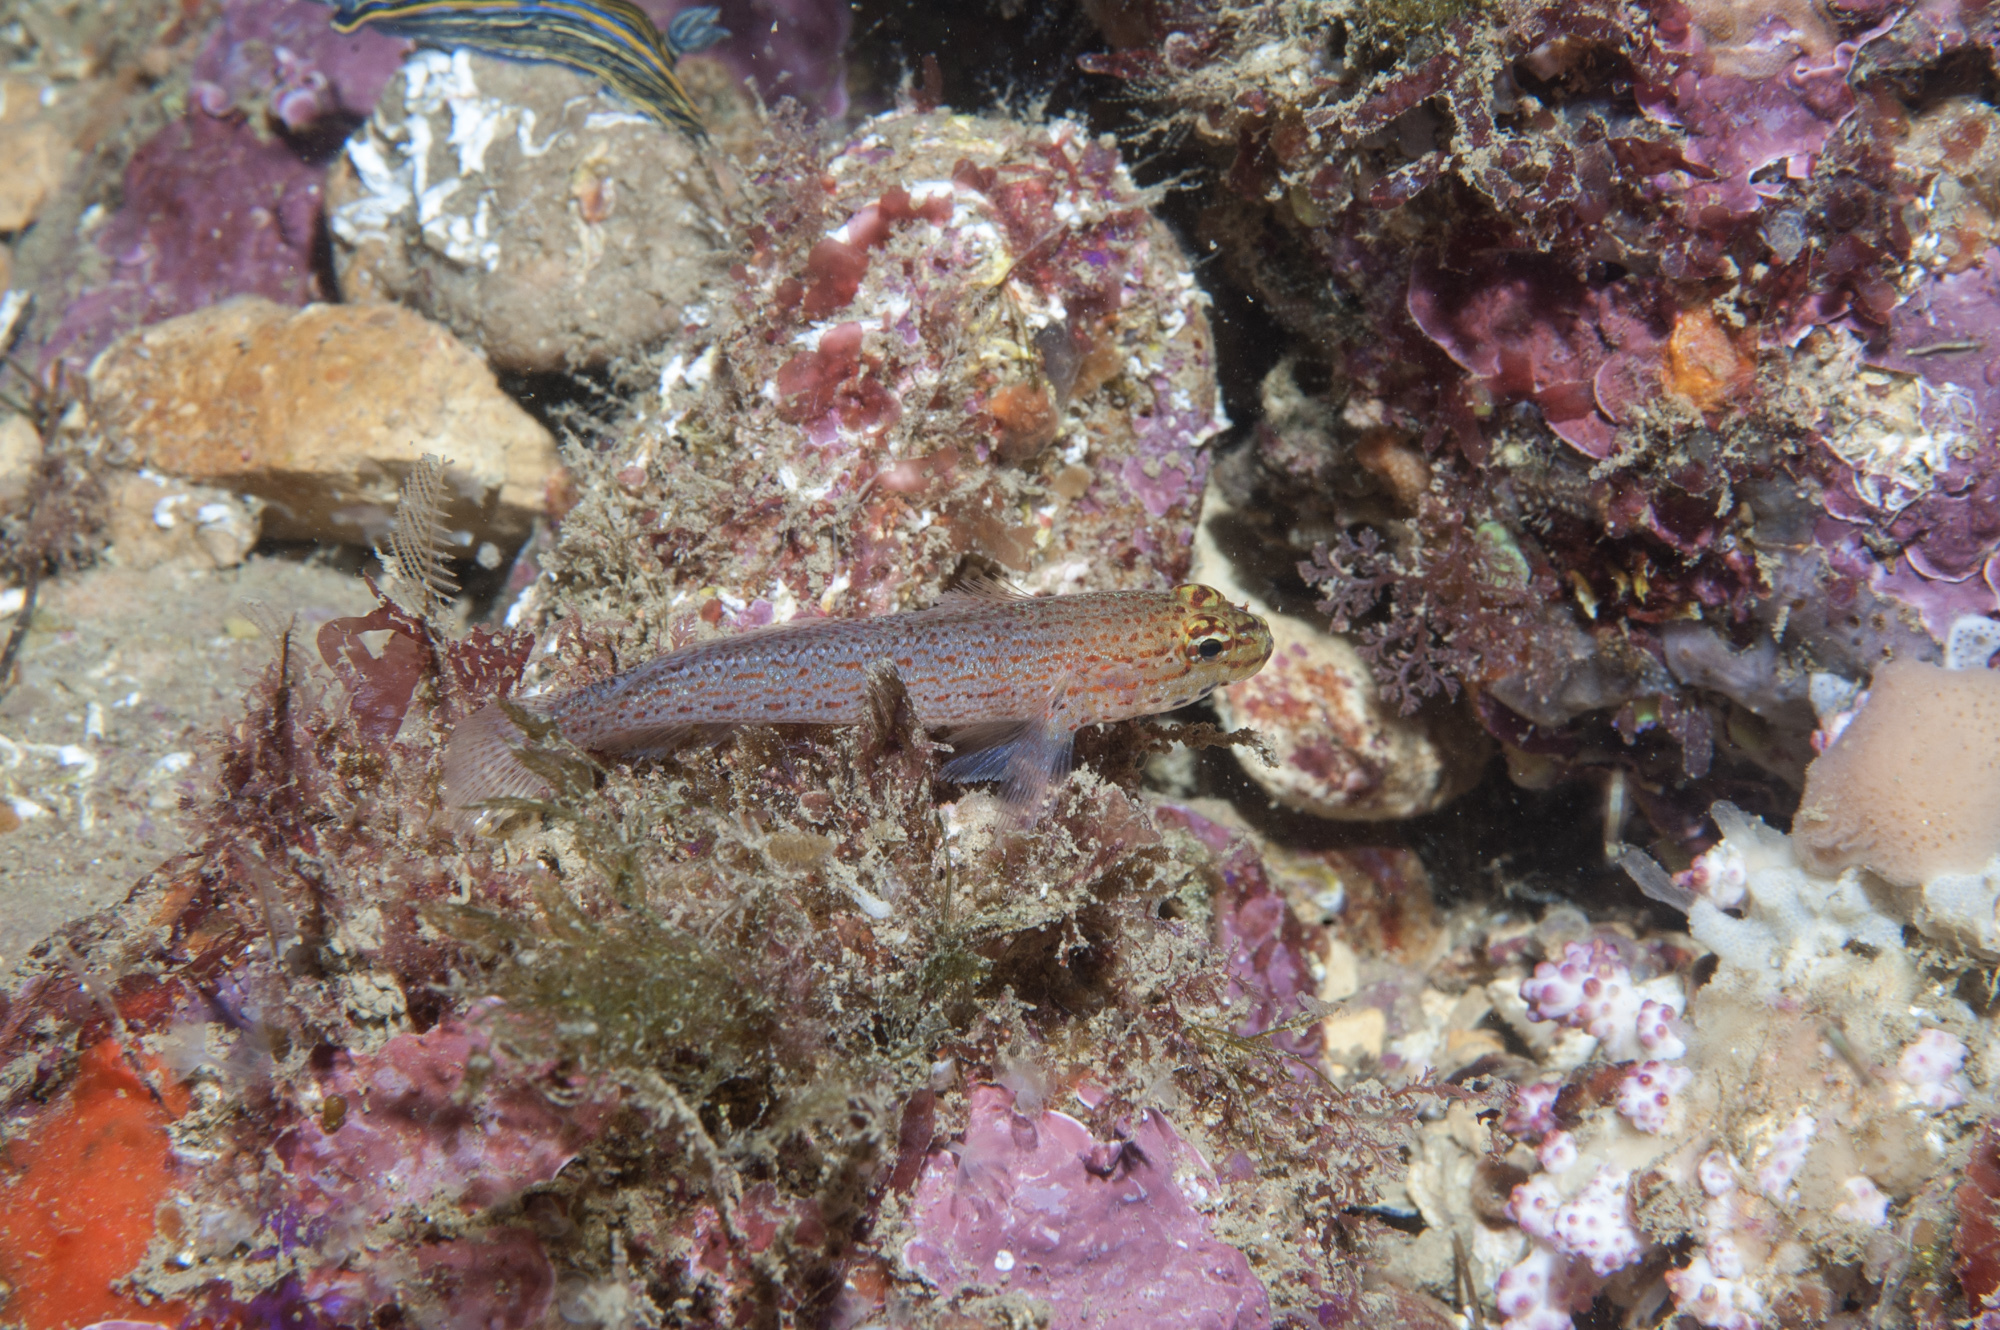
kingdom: Animalia
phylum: Chordata
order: Perciformes
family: Gobiidae
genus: Gobius
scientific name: Gobius xanthocephalus
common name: Golden goby
